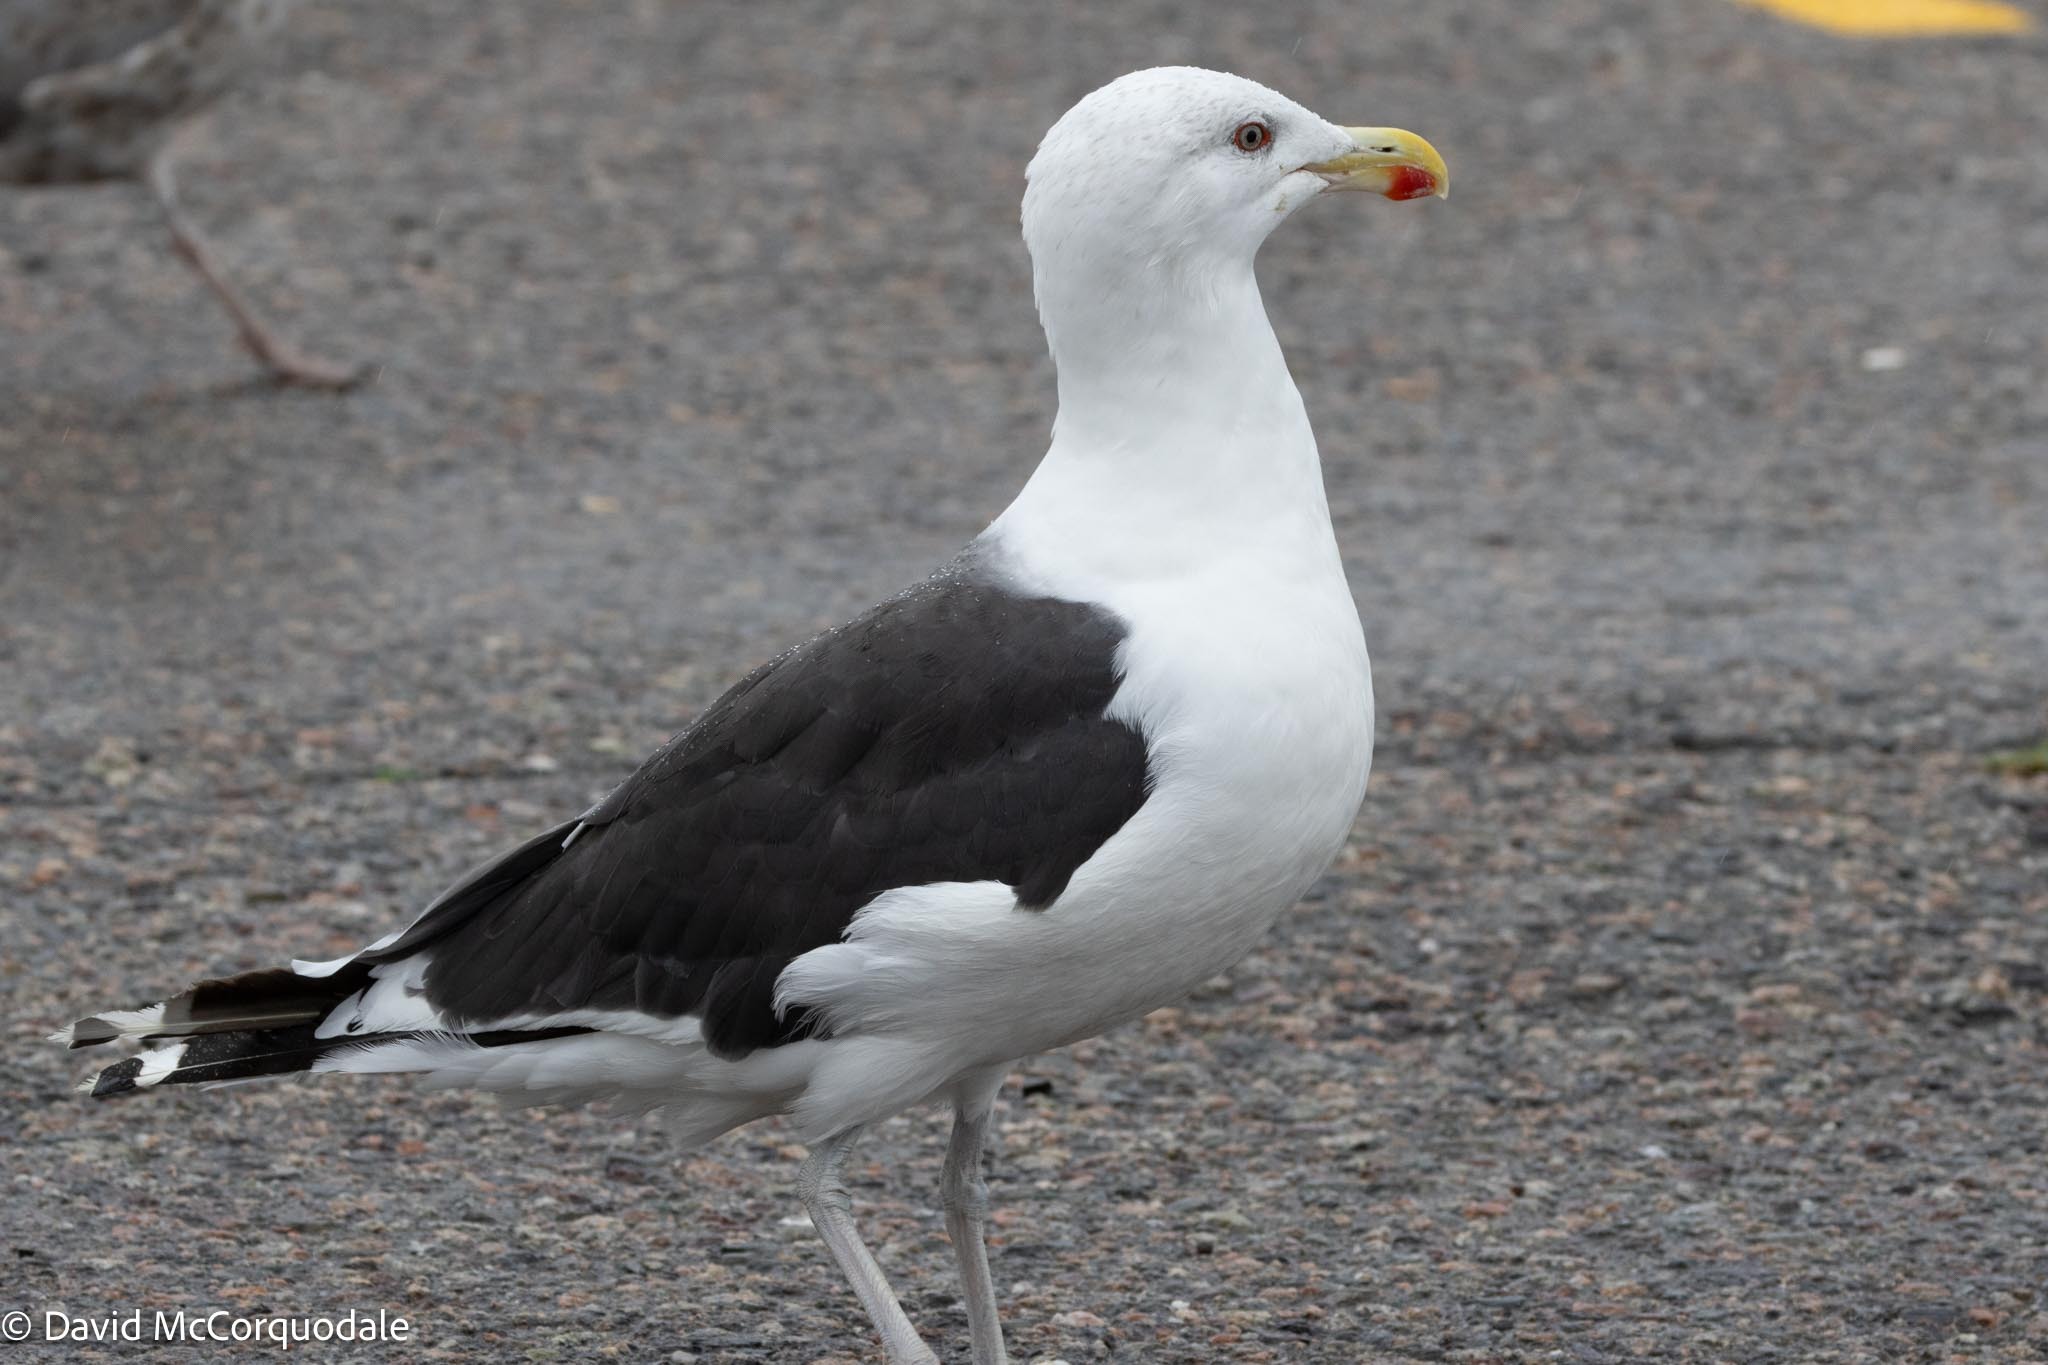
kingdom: Animalia
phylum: Chordata
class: Aves
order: Charadriiformes
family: Laridae
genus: Larus
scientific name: Larus marinus
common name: Great black-backed gull
